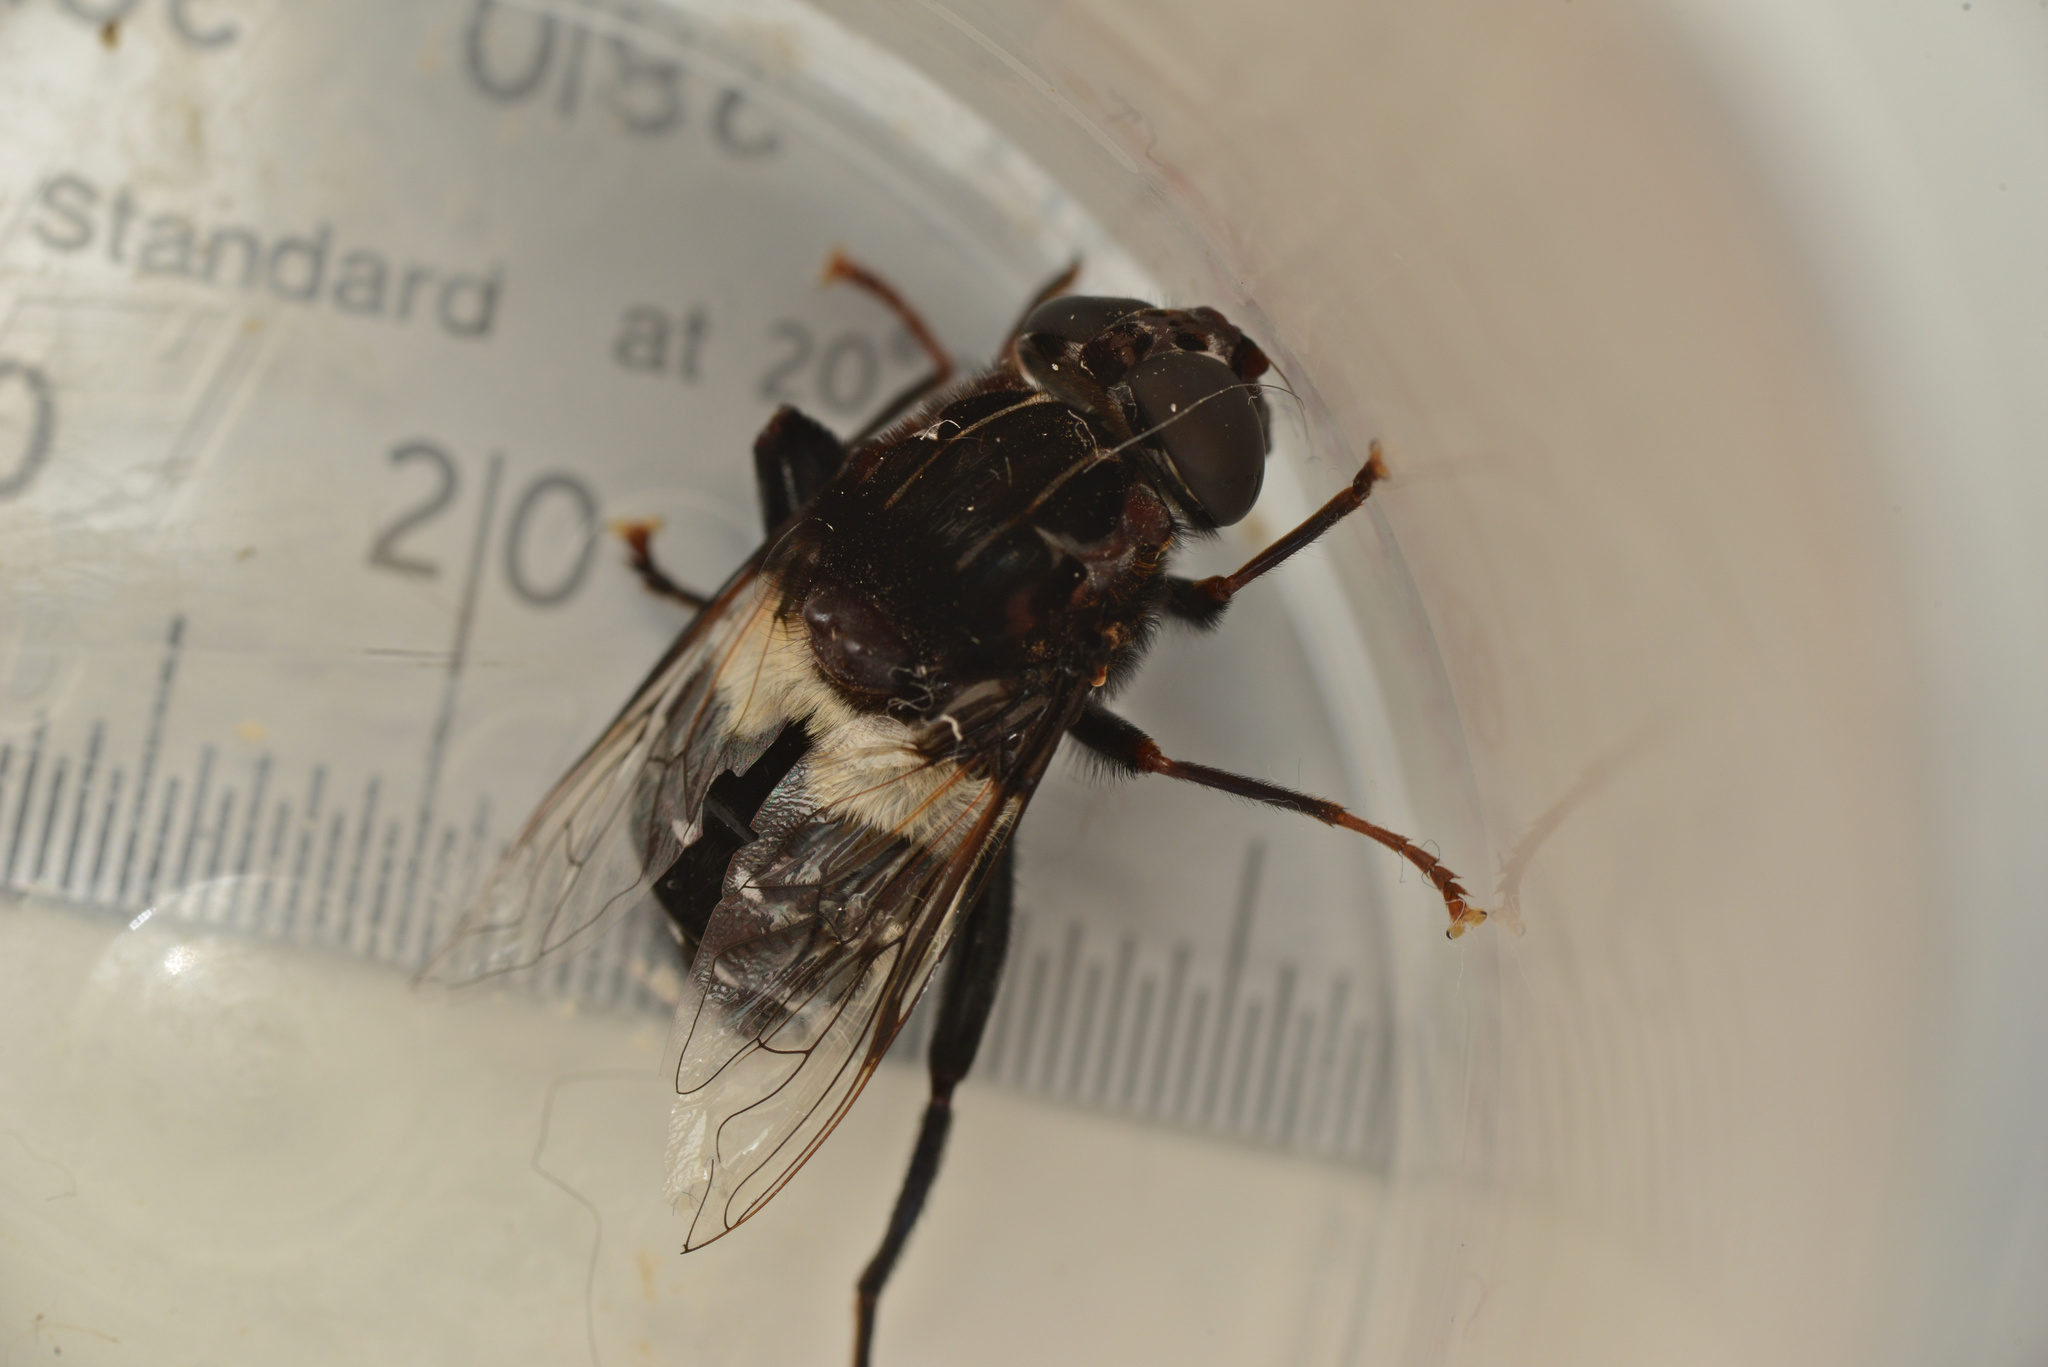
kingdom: Animalia
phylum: Arthropoda
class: Insecta
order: Diptera
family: Syrphidae
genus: Helophilus
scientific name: Helophilus cingulatus
